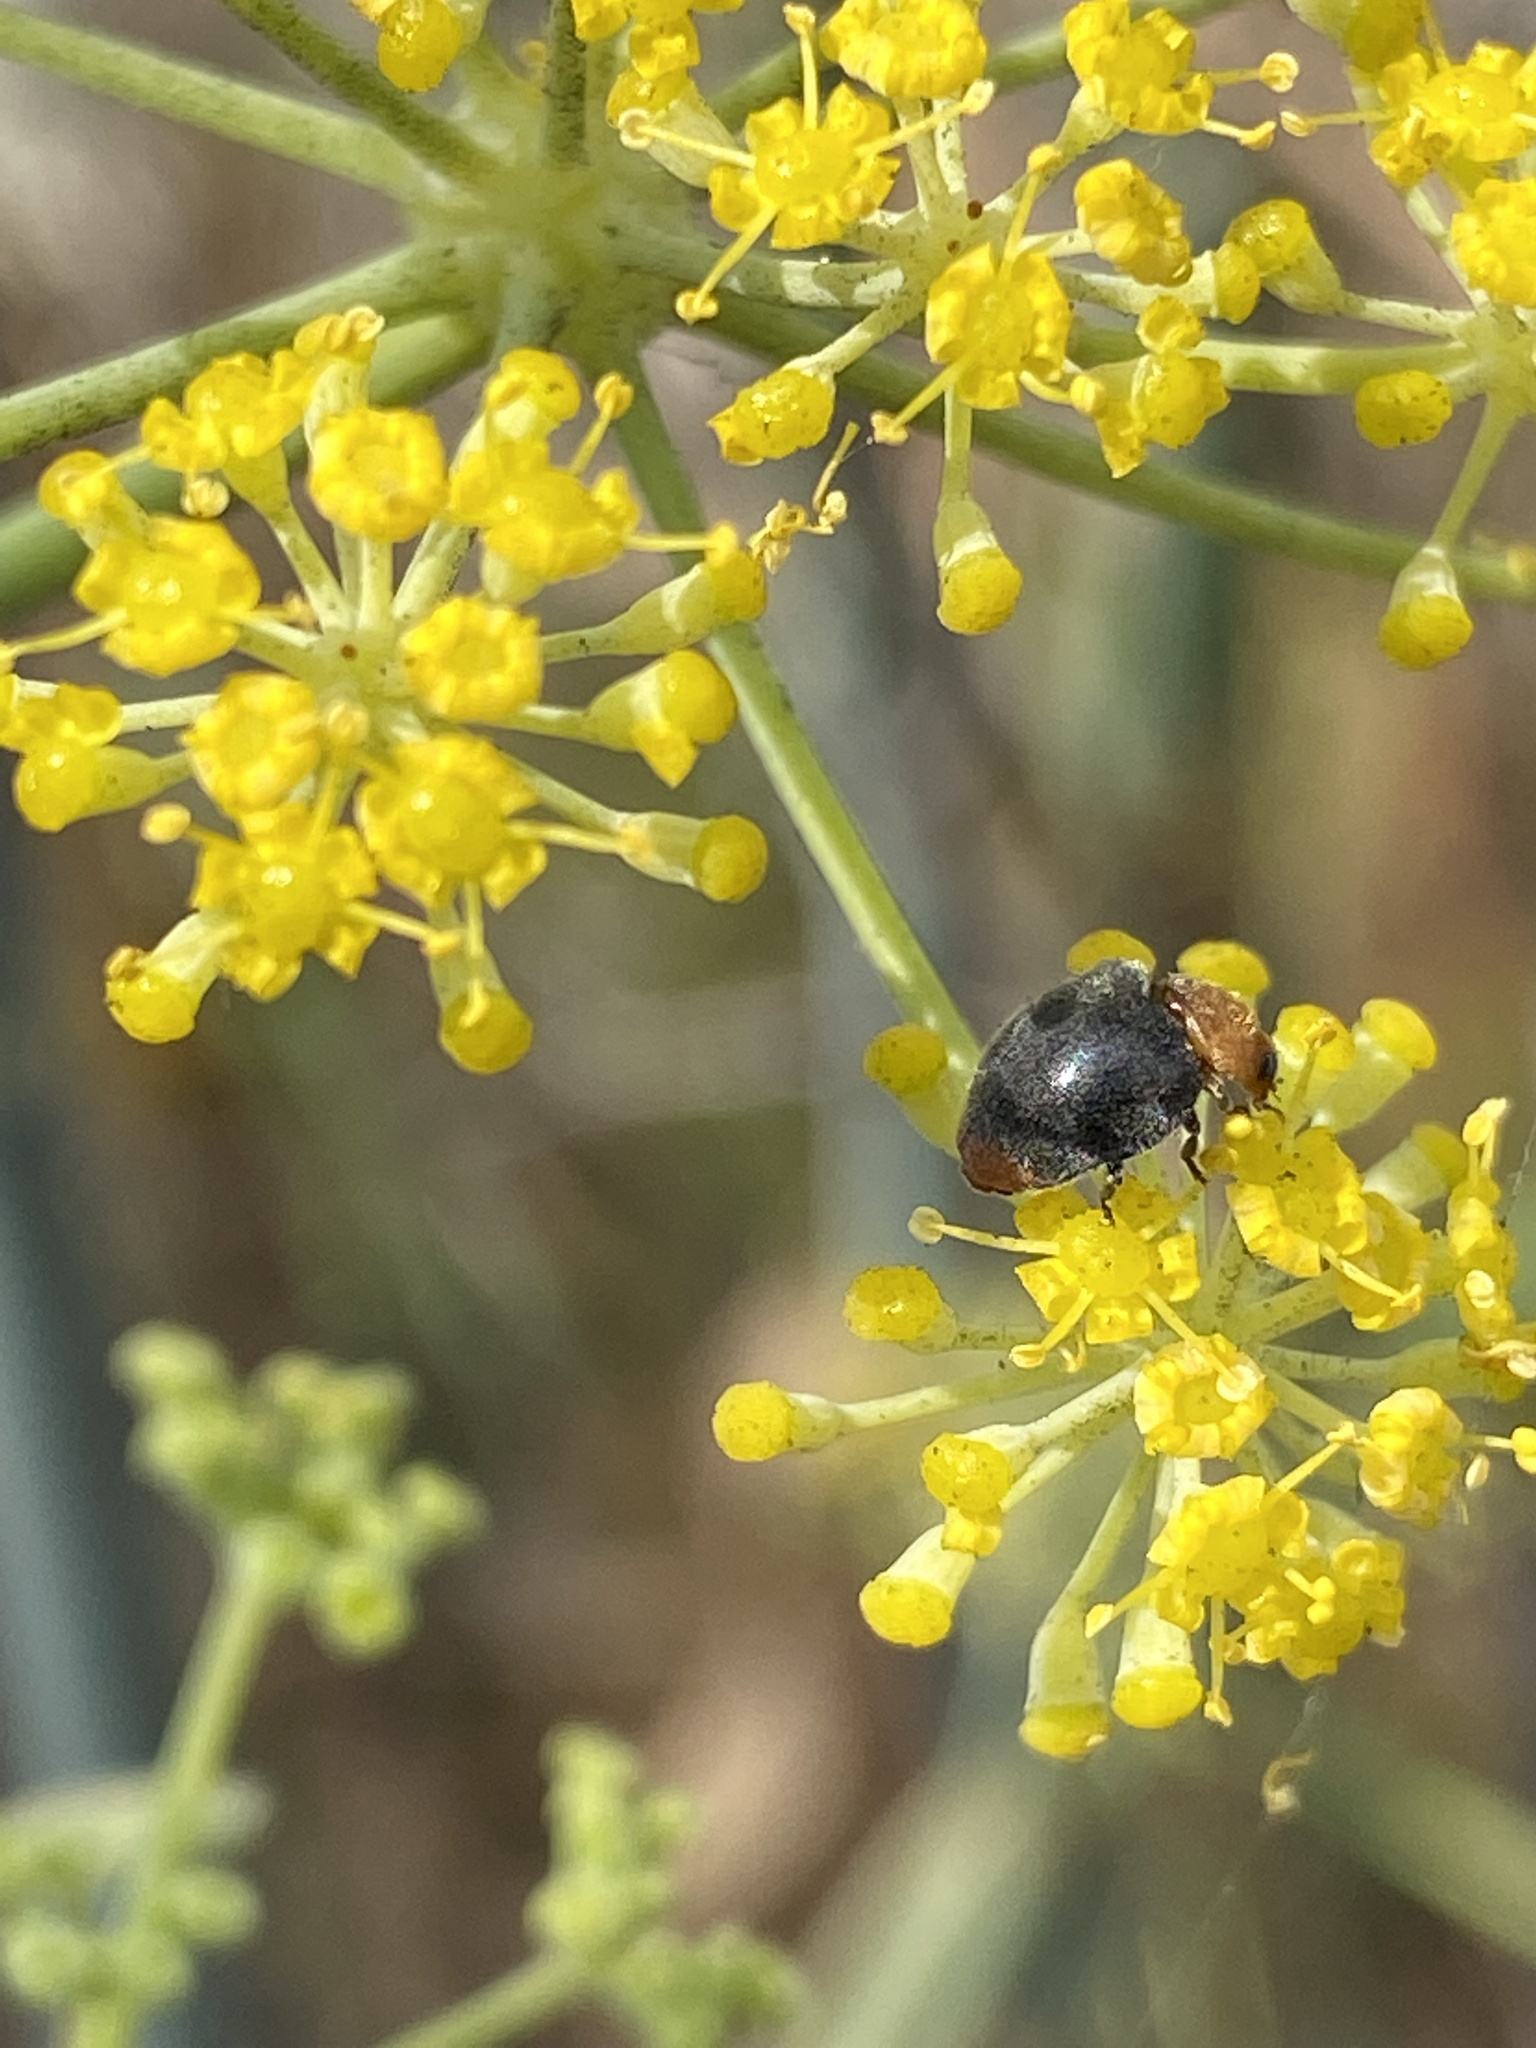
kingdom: Animalia
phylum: Arthropoda
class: Insecta
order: Coleoptera
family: Coccinellidae
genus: Cryptolaemus
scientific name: Cryptolaemus montrouzieri
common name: Mealybug destroyer
